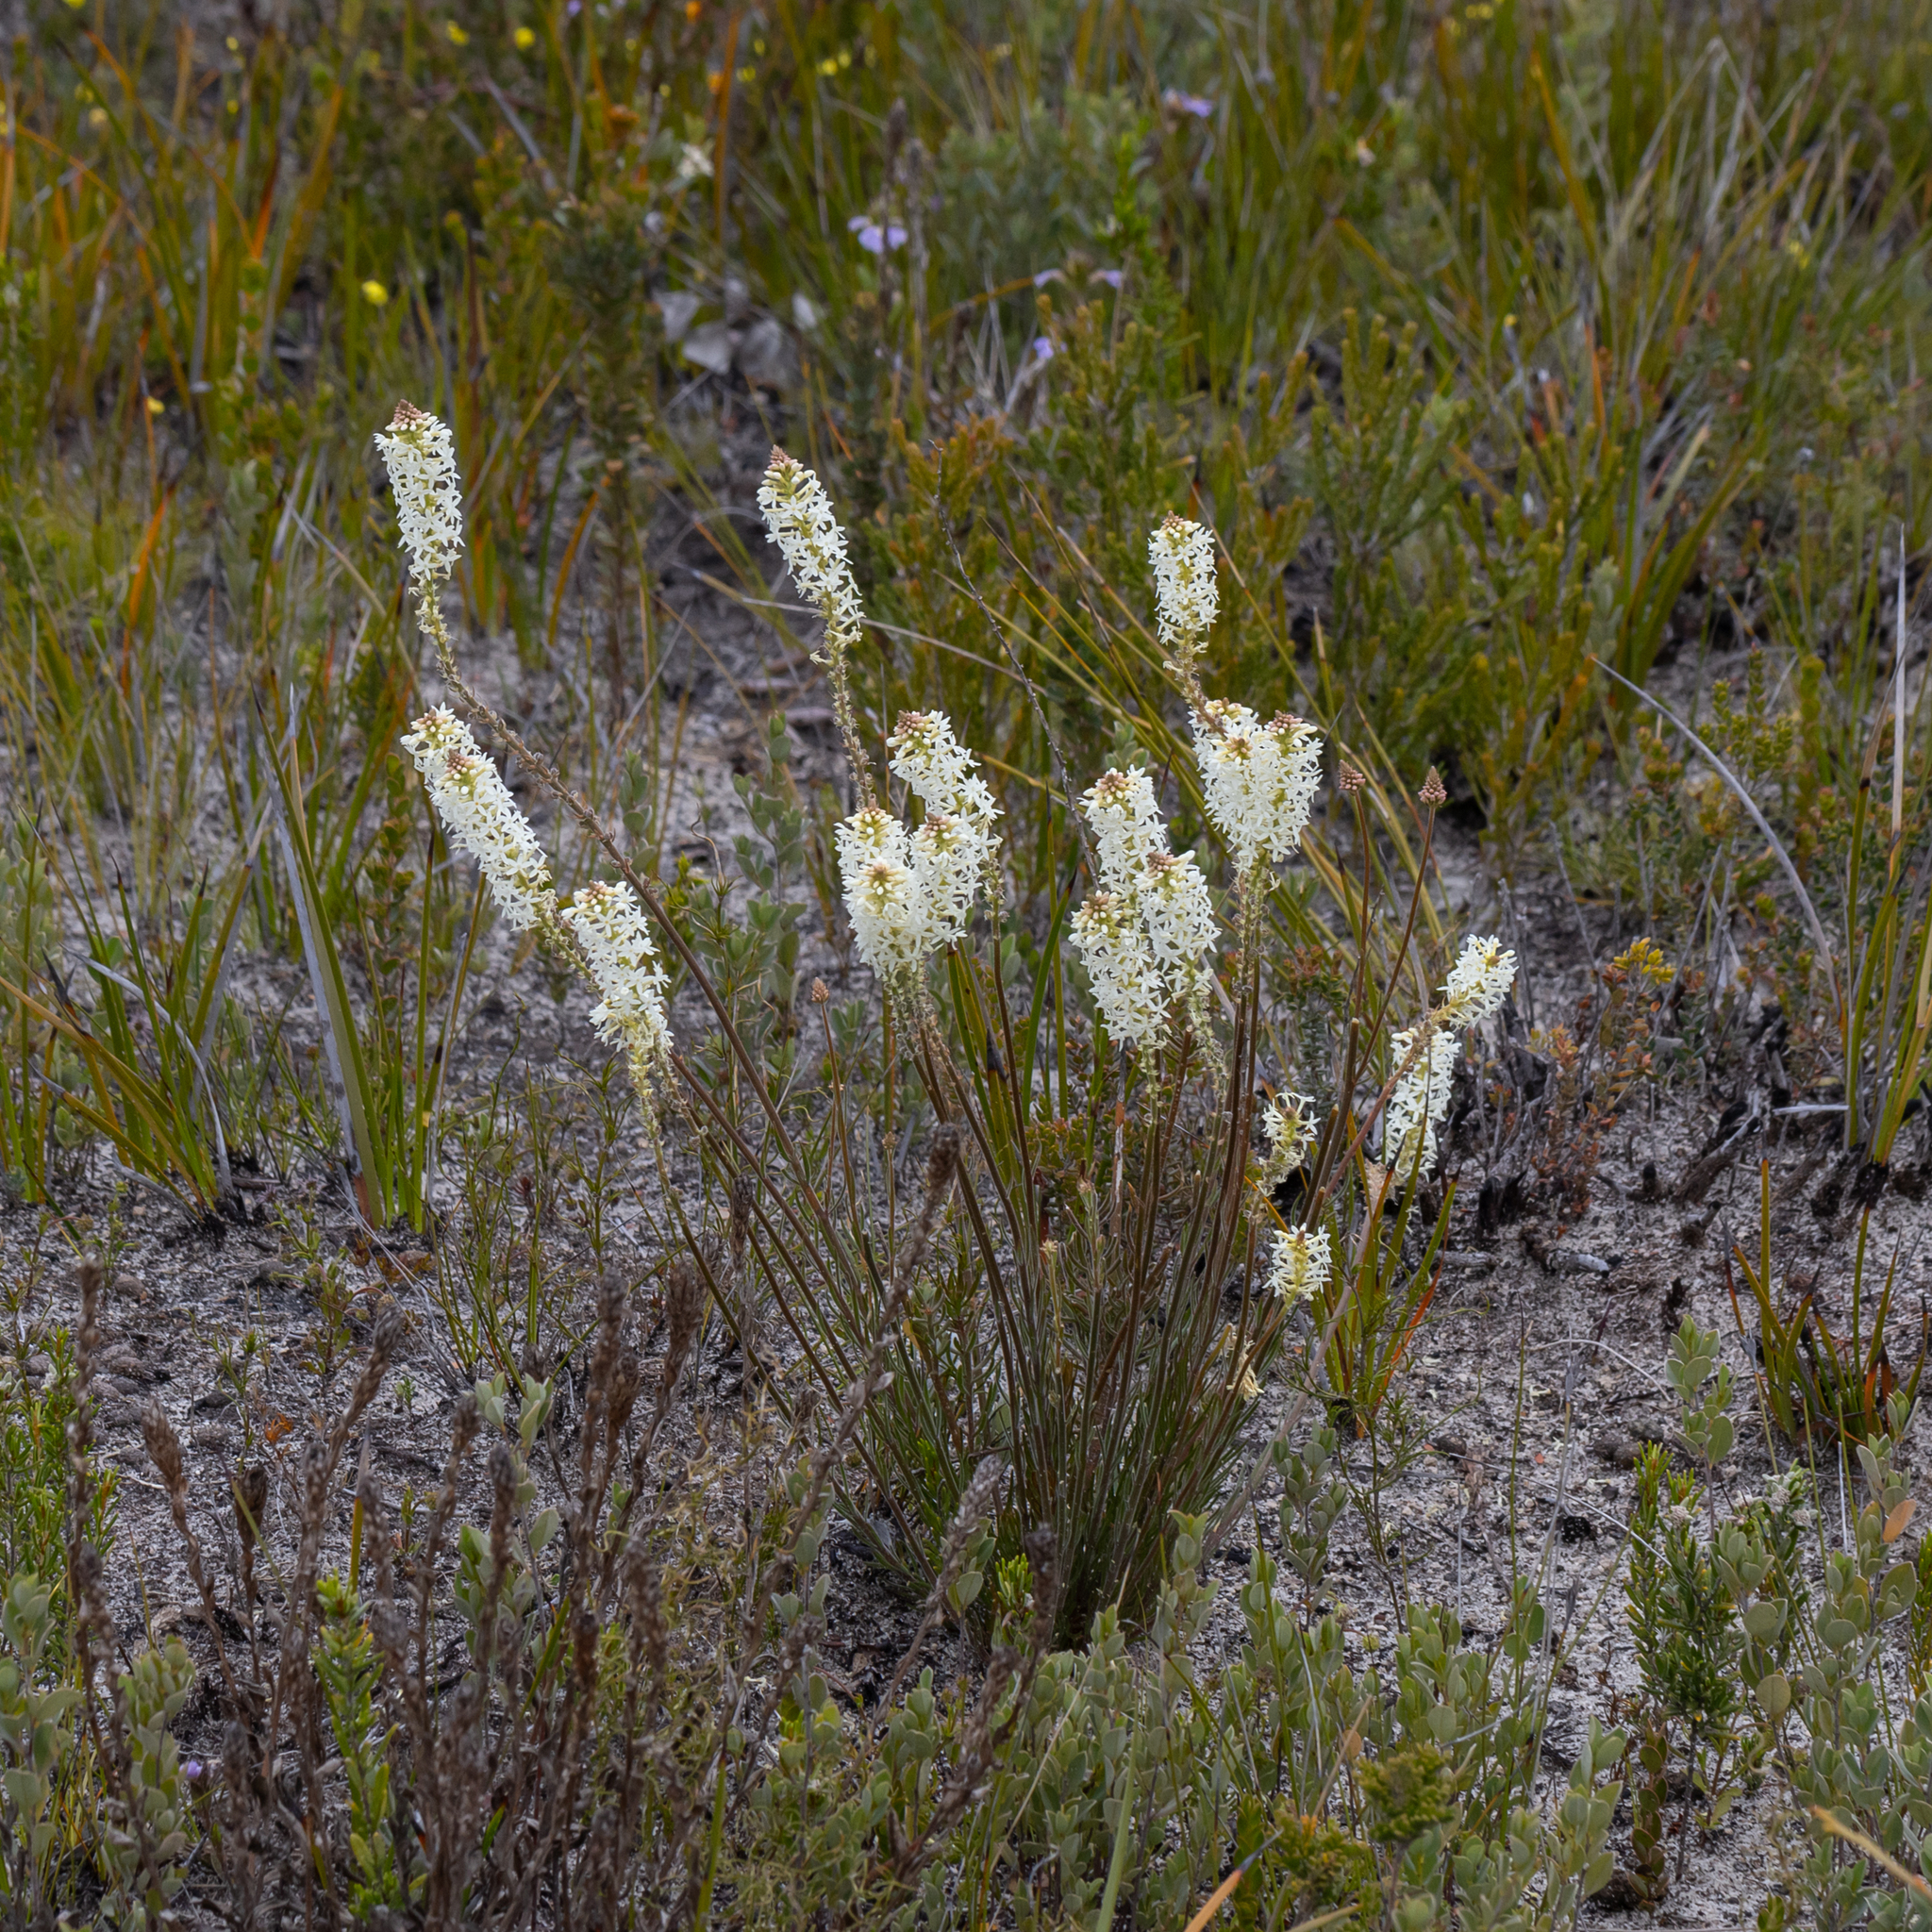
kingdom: Plantae
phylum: Tracheophyta
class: Magnoliopsida
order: Celastrales
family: Celastraceae
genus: Stackhousia
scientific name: Stackhousia monogyna
